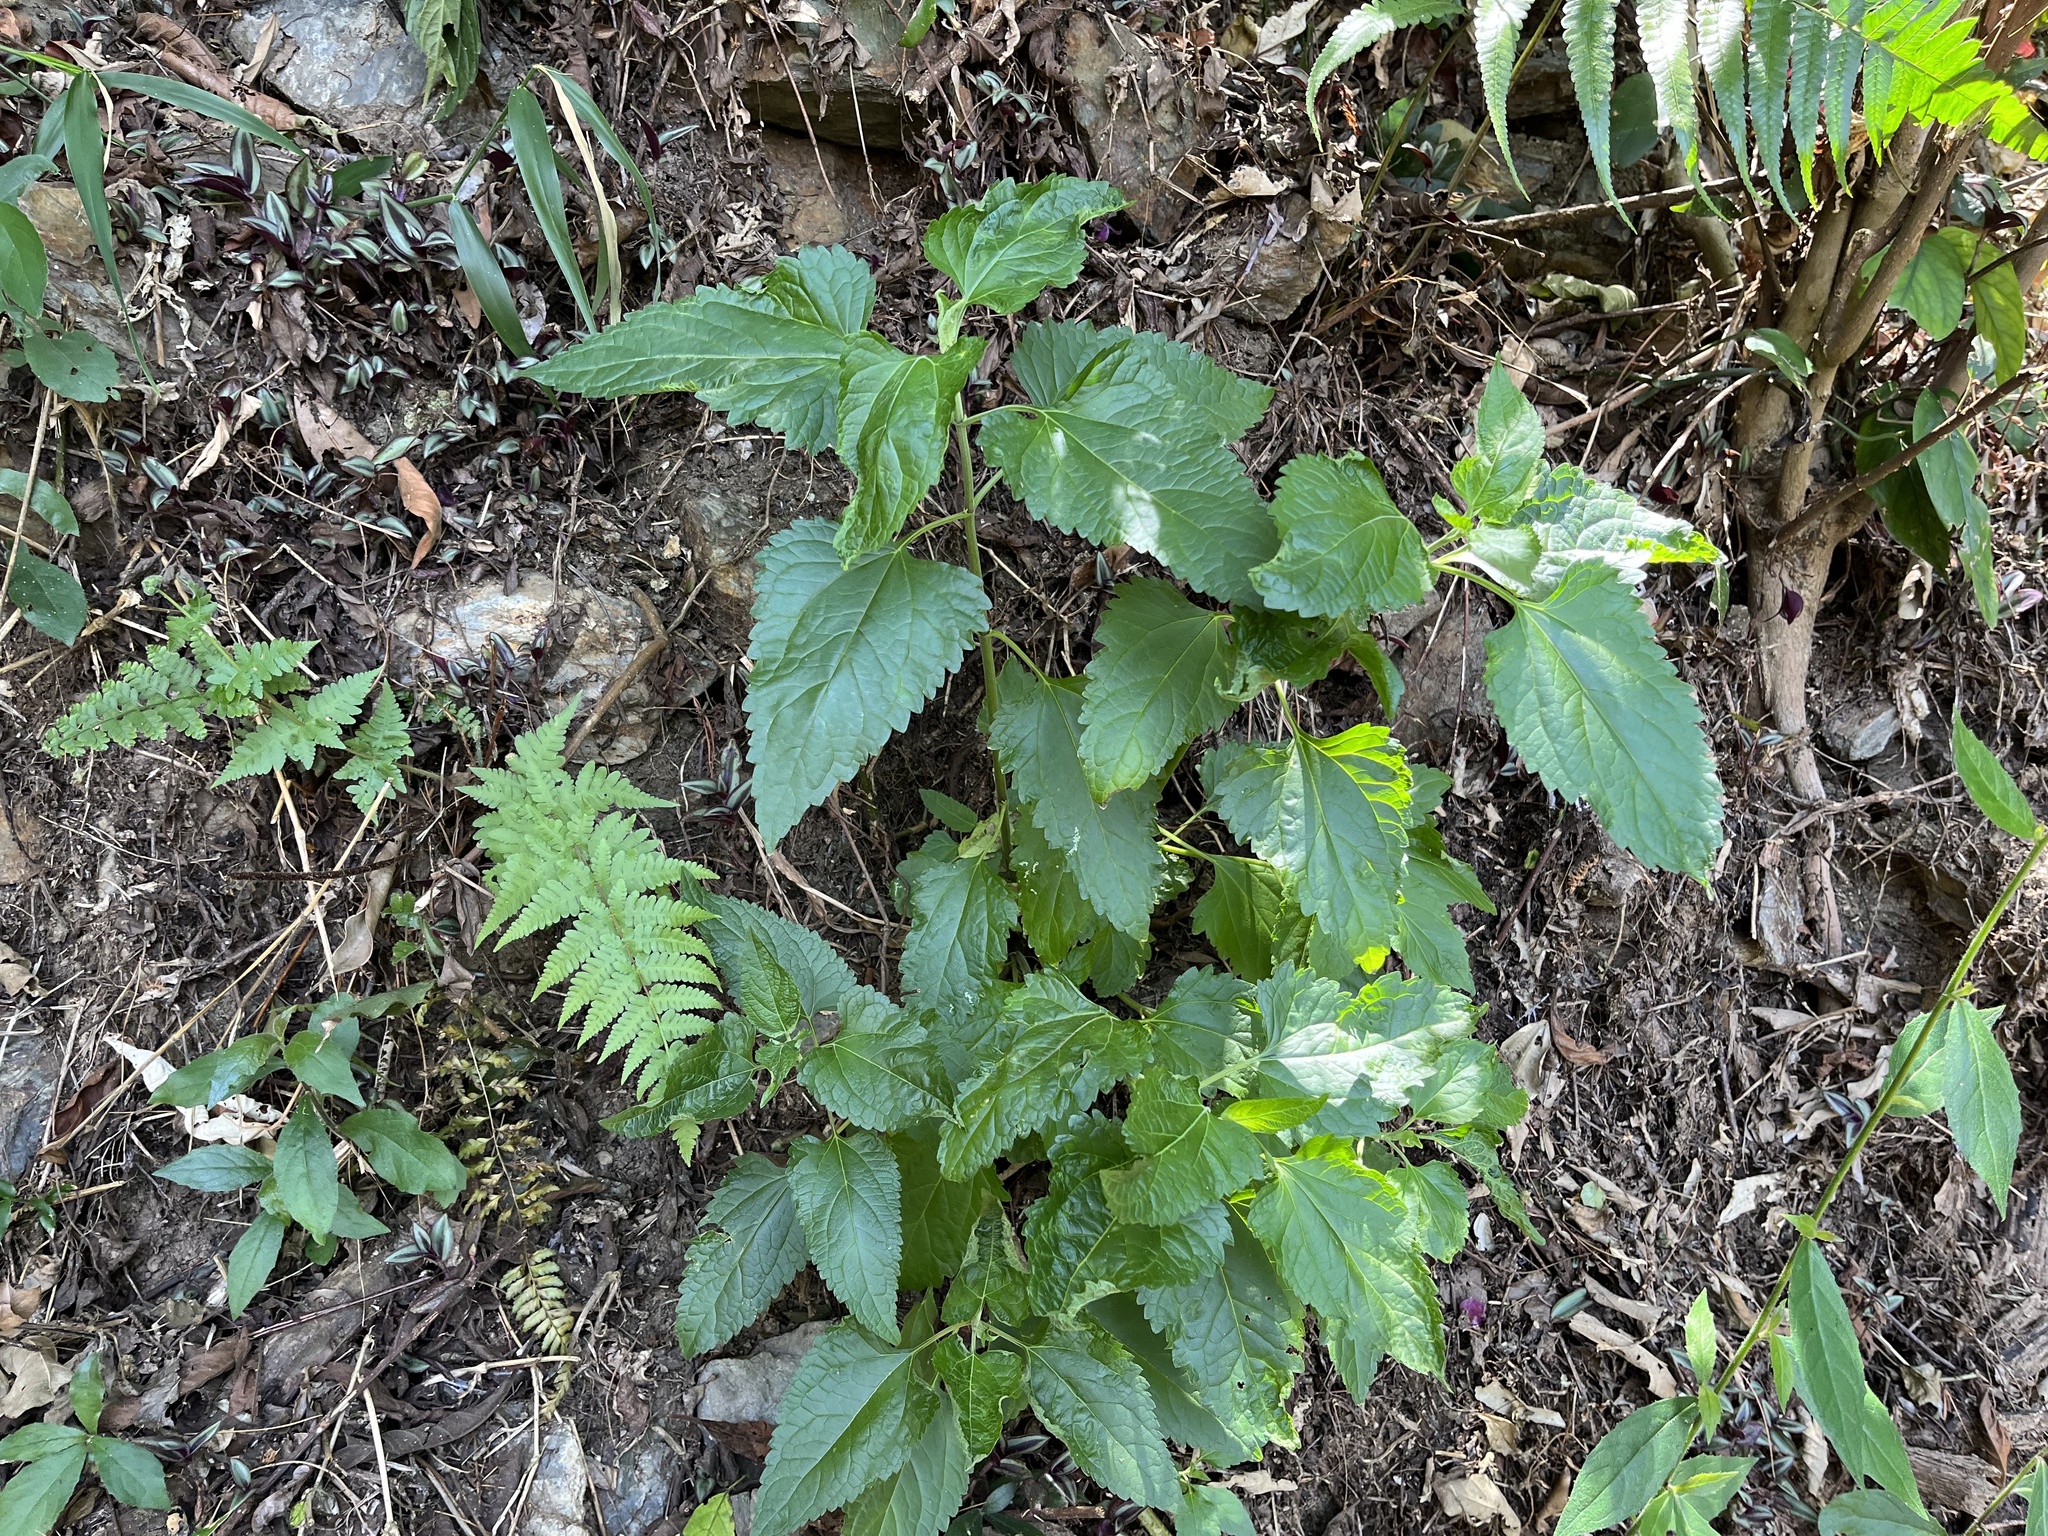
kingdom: Plantae
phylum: Tracheophyta
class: Magnoliopsida
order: Asterales
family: Asteraceae
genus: Austroeupatorium
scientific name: Austroeupatorium inulifolium
